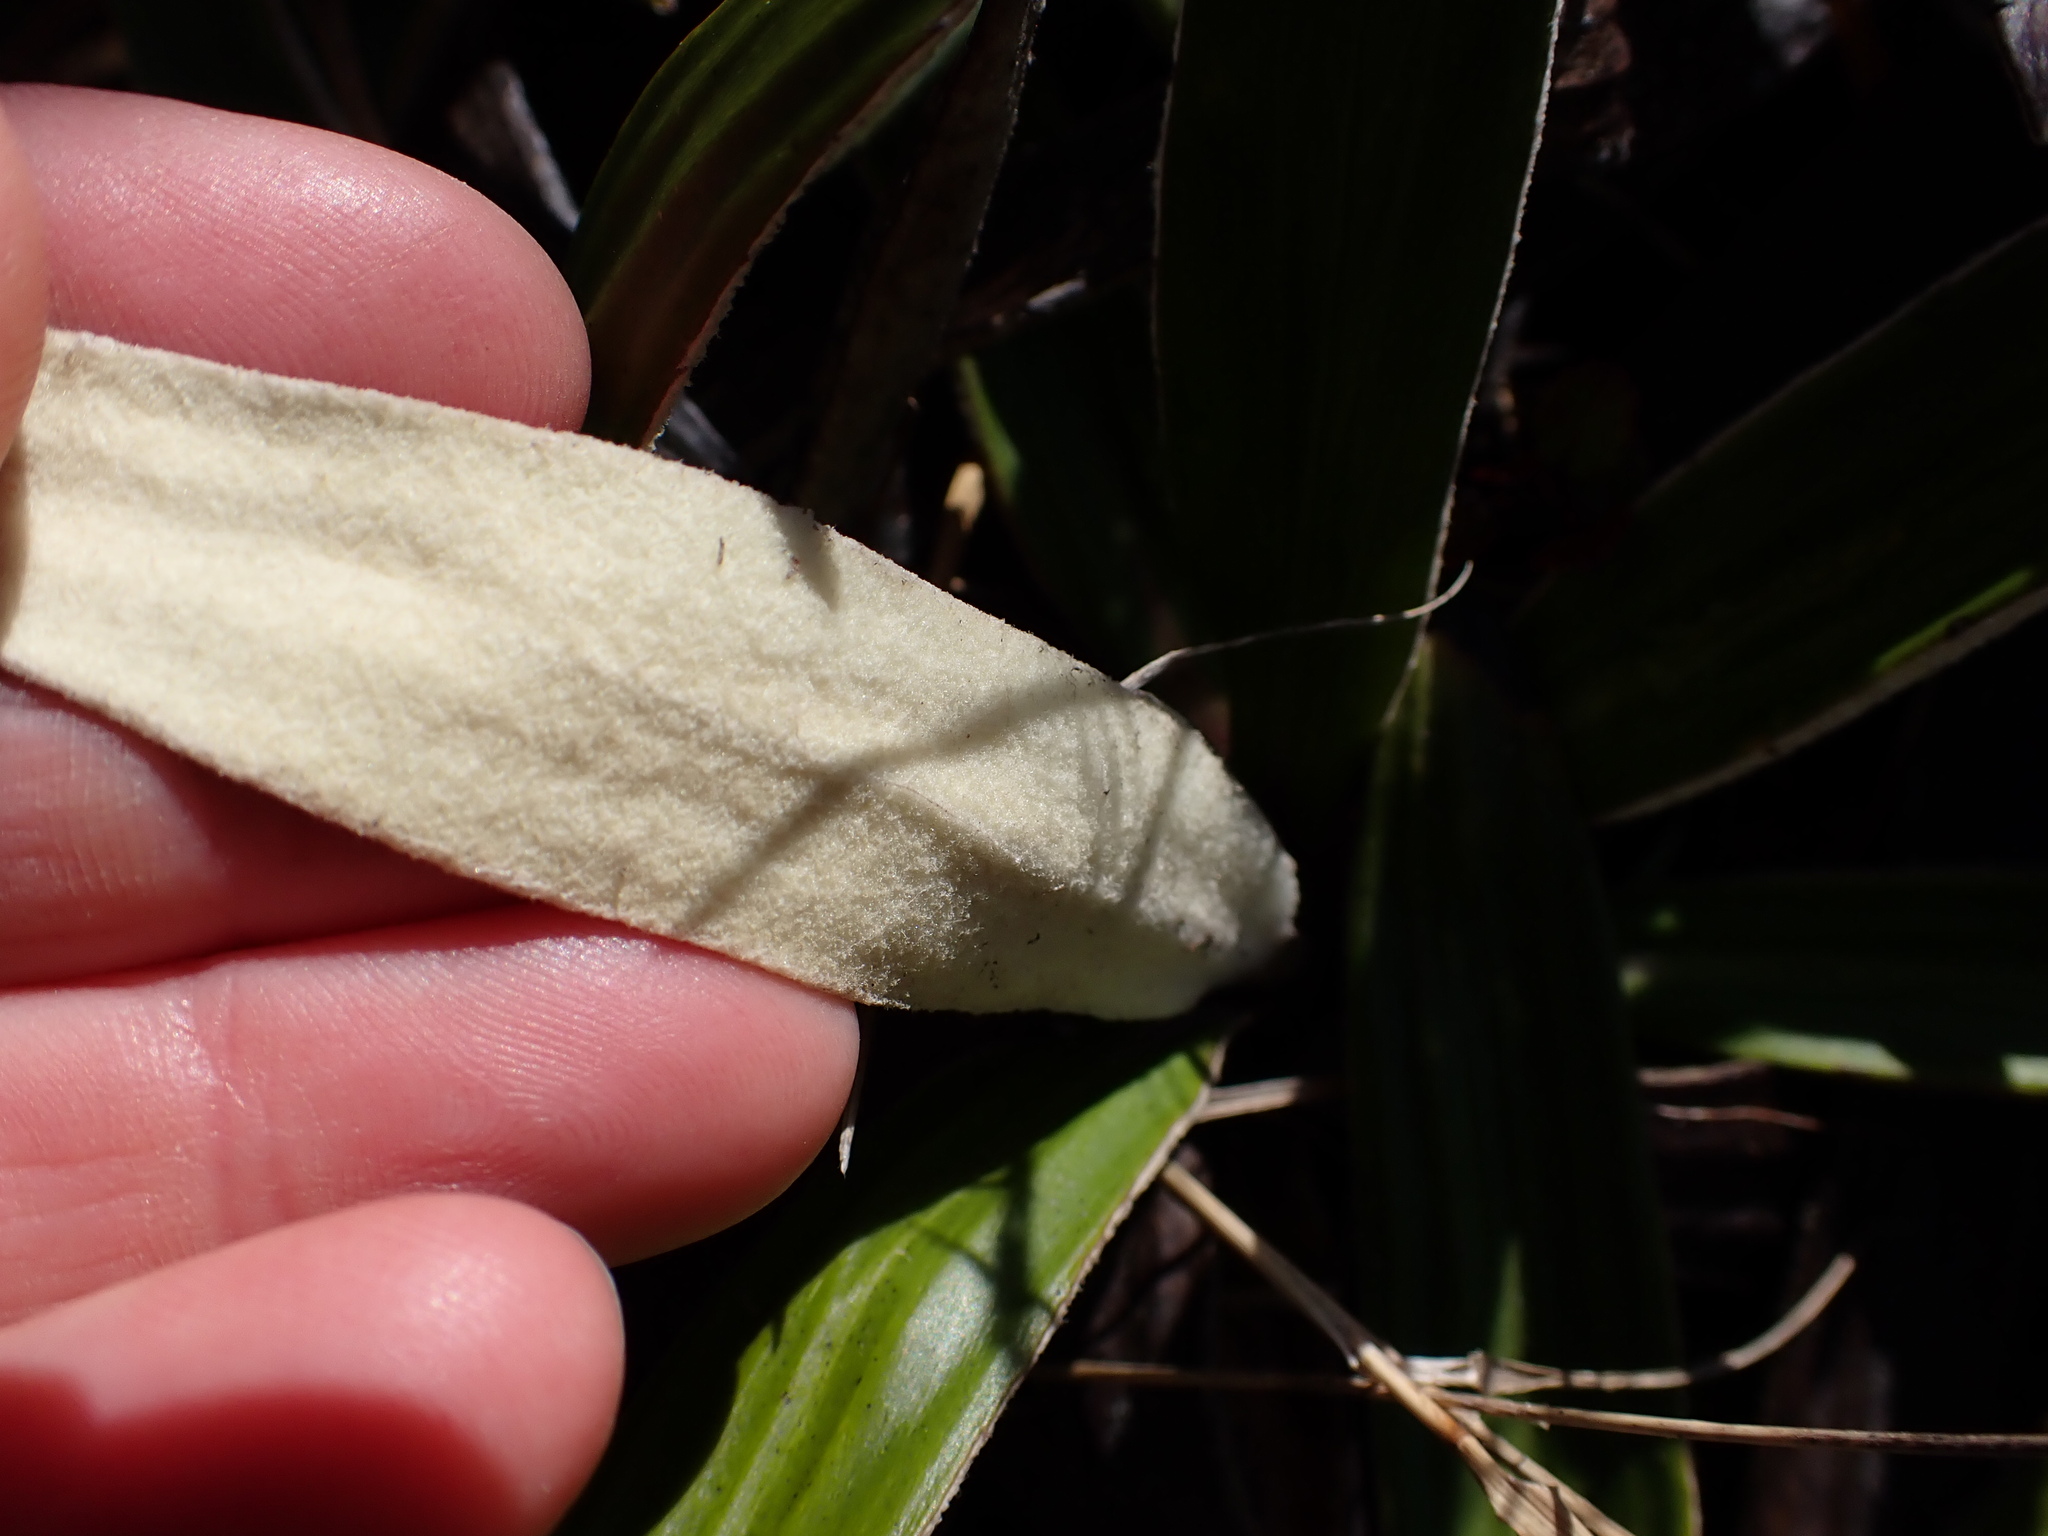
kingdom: Plantae
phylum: Tracheophyta
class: Magnoliopsida
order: Asterales
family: Asteraceae
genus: Celmisia
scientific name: Celmisia spectabilis
